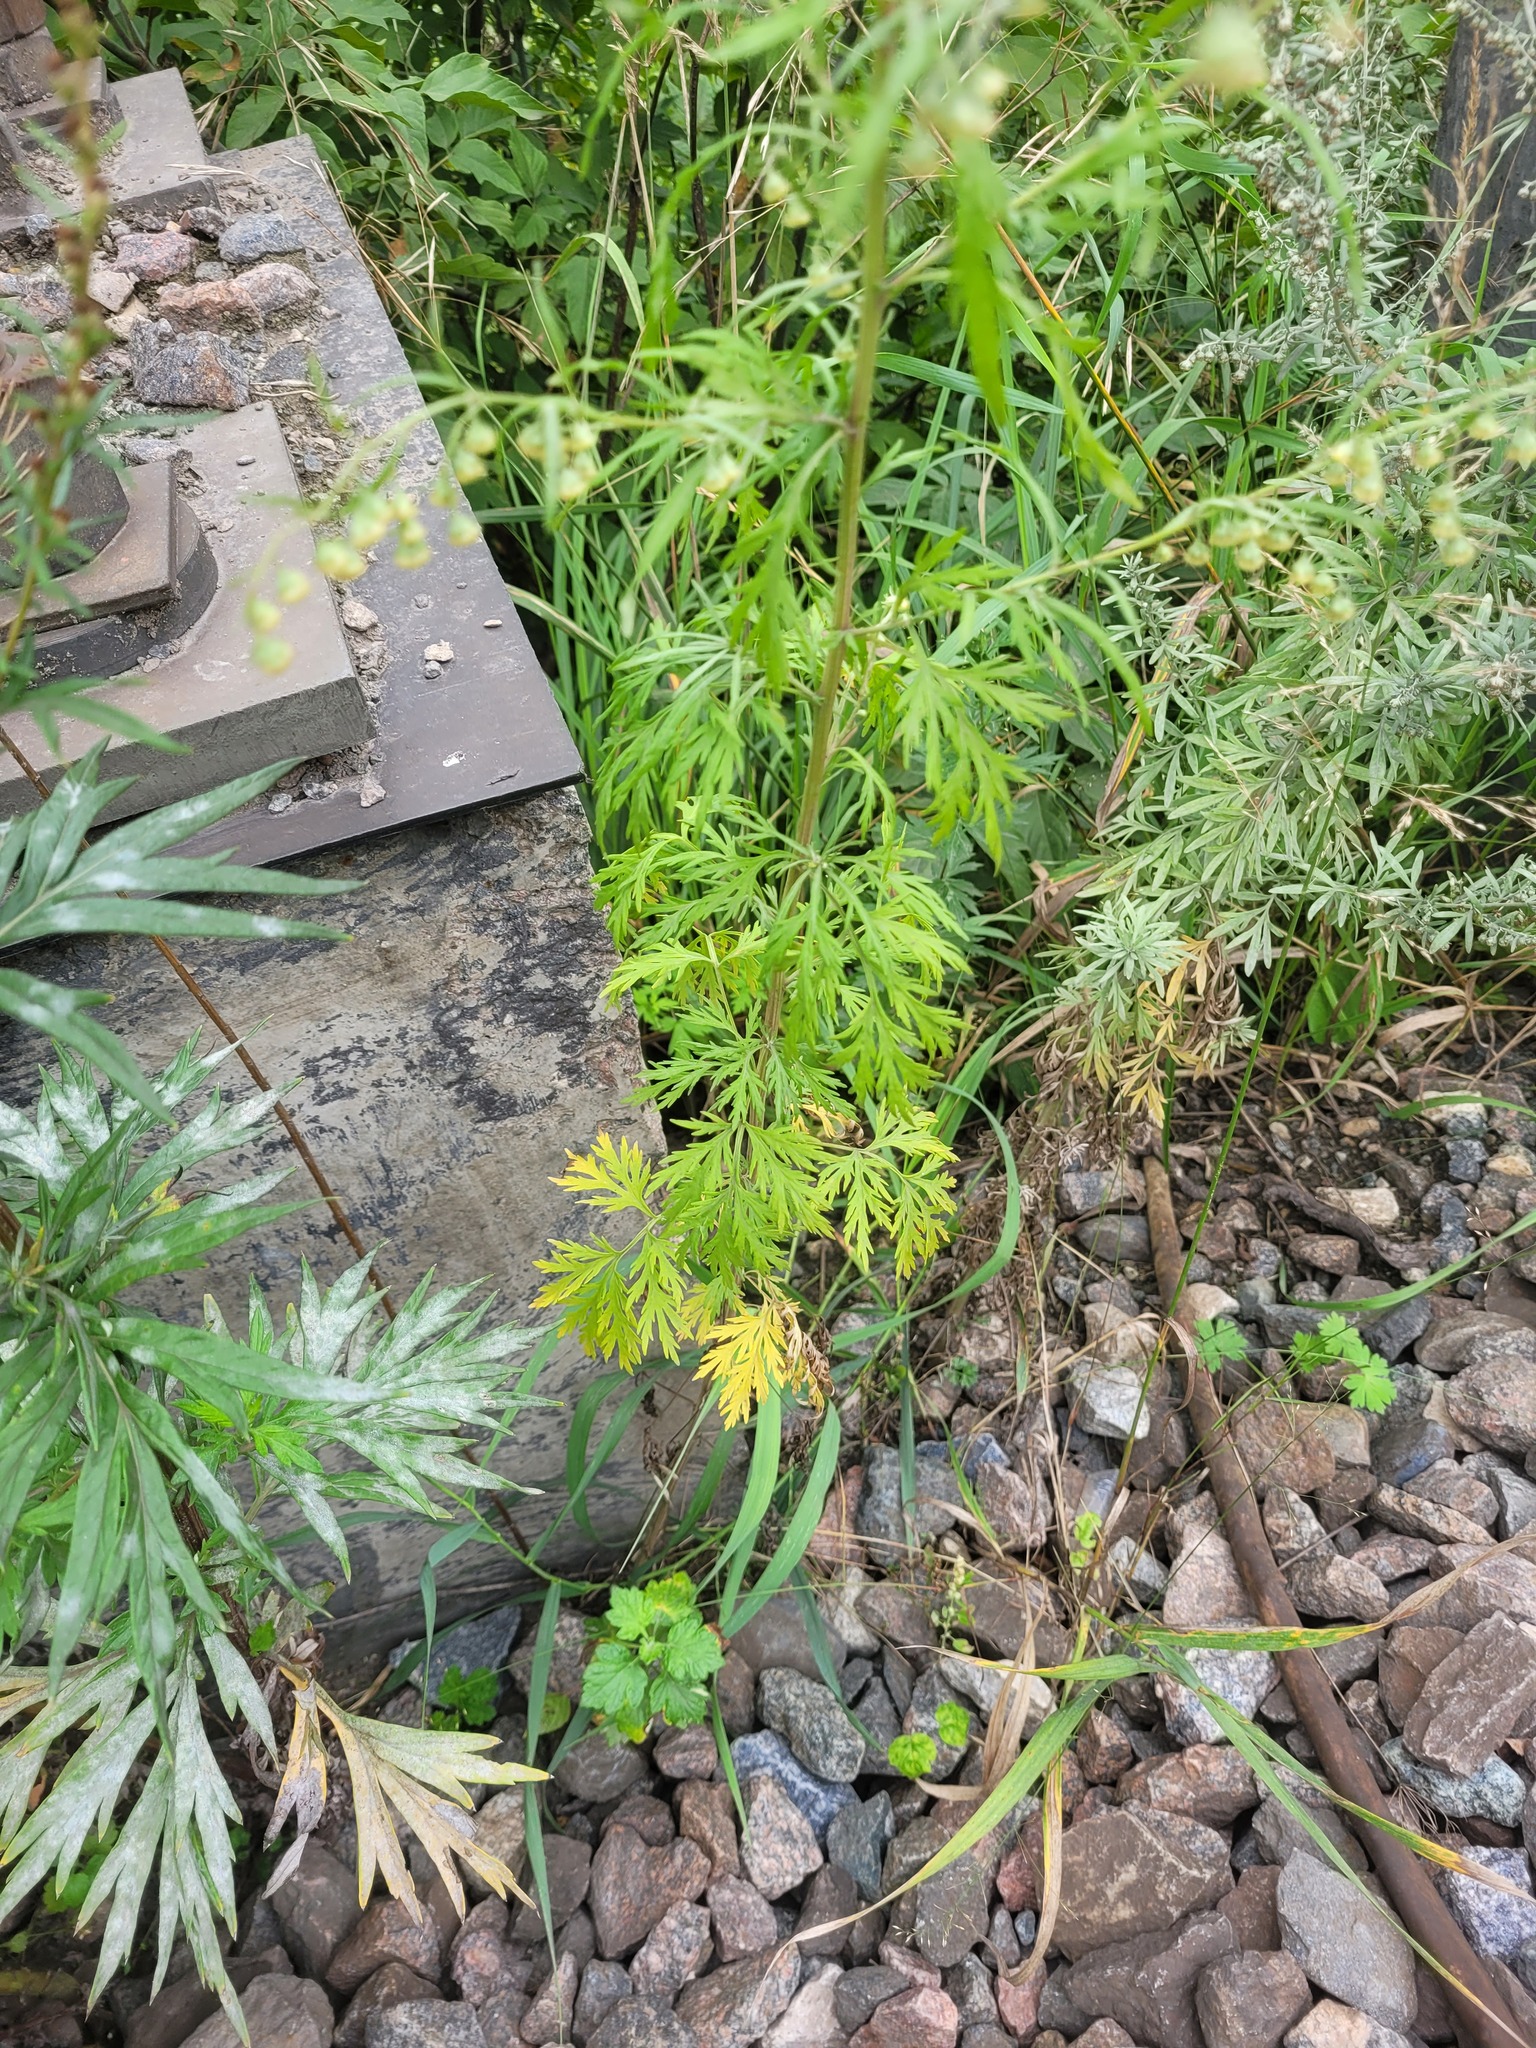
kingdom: Plantae
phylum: Tracheophyta
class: Magnoliopsida
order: Asterales
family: Asteraceae
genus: Artemisia
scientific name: Artemisia sieversiana
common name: Sieversian wormwood
